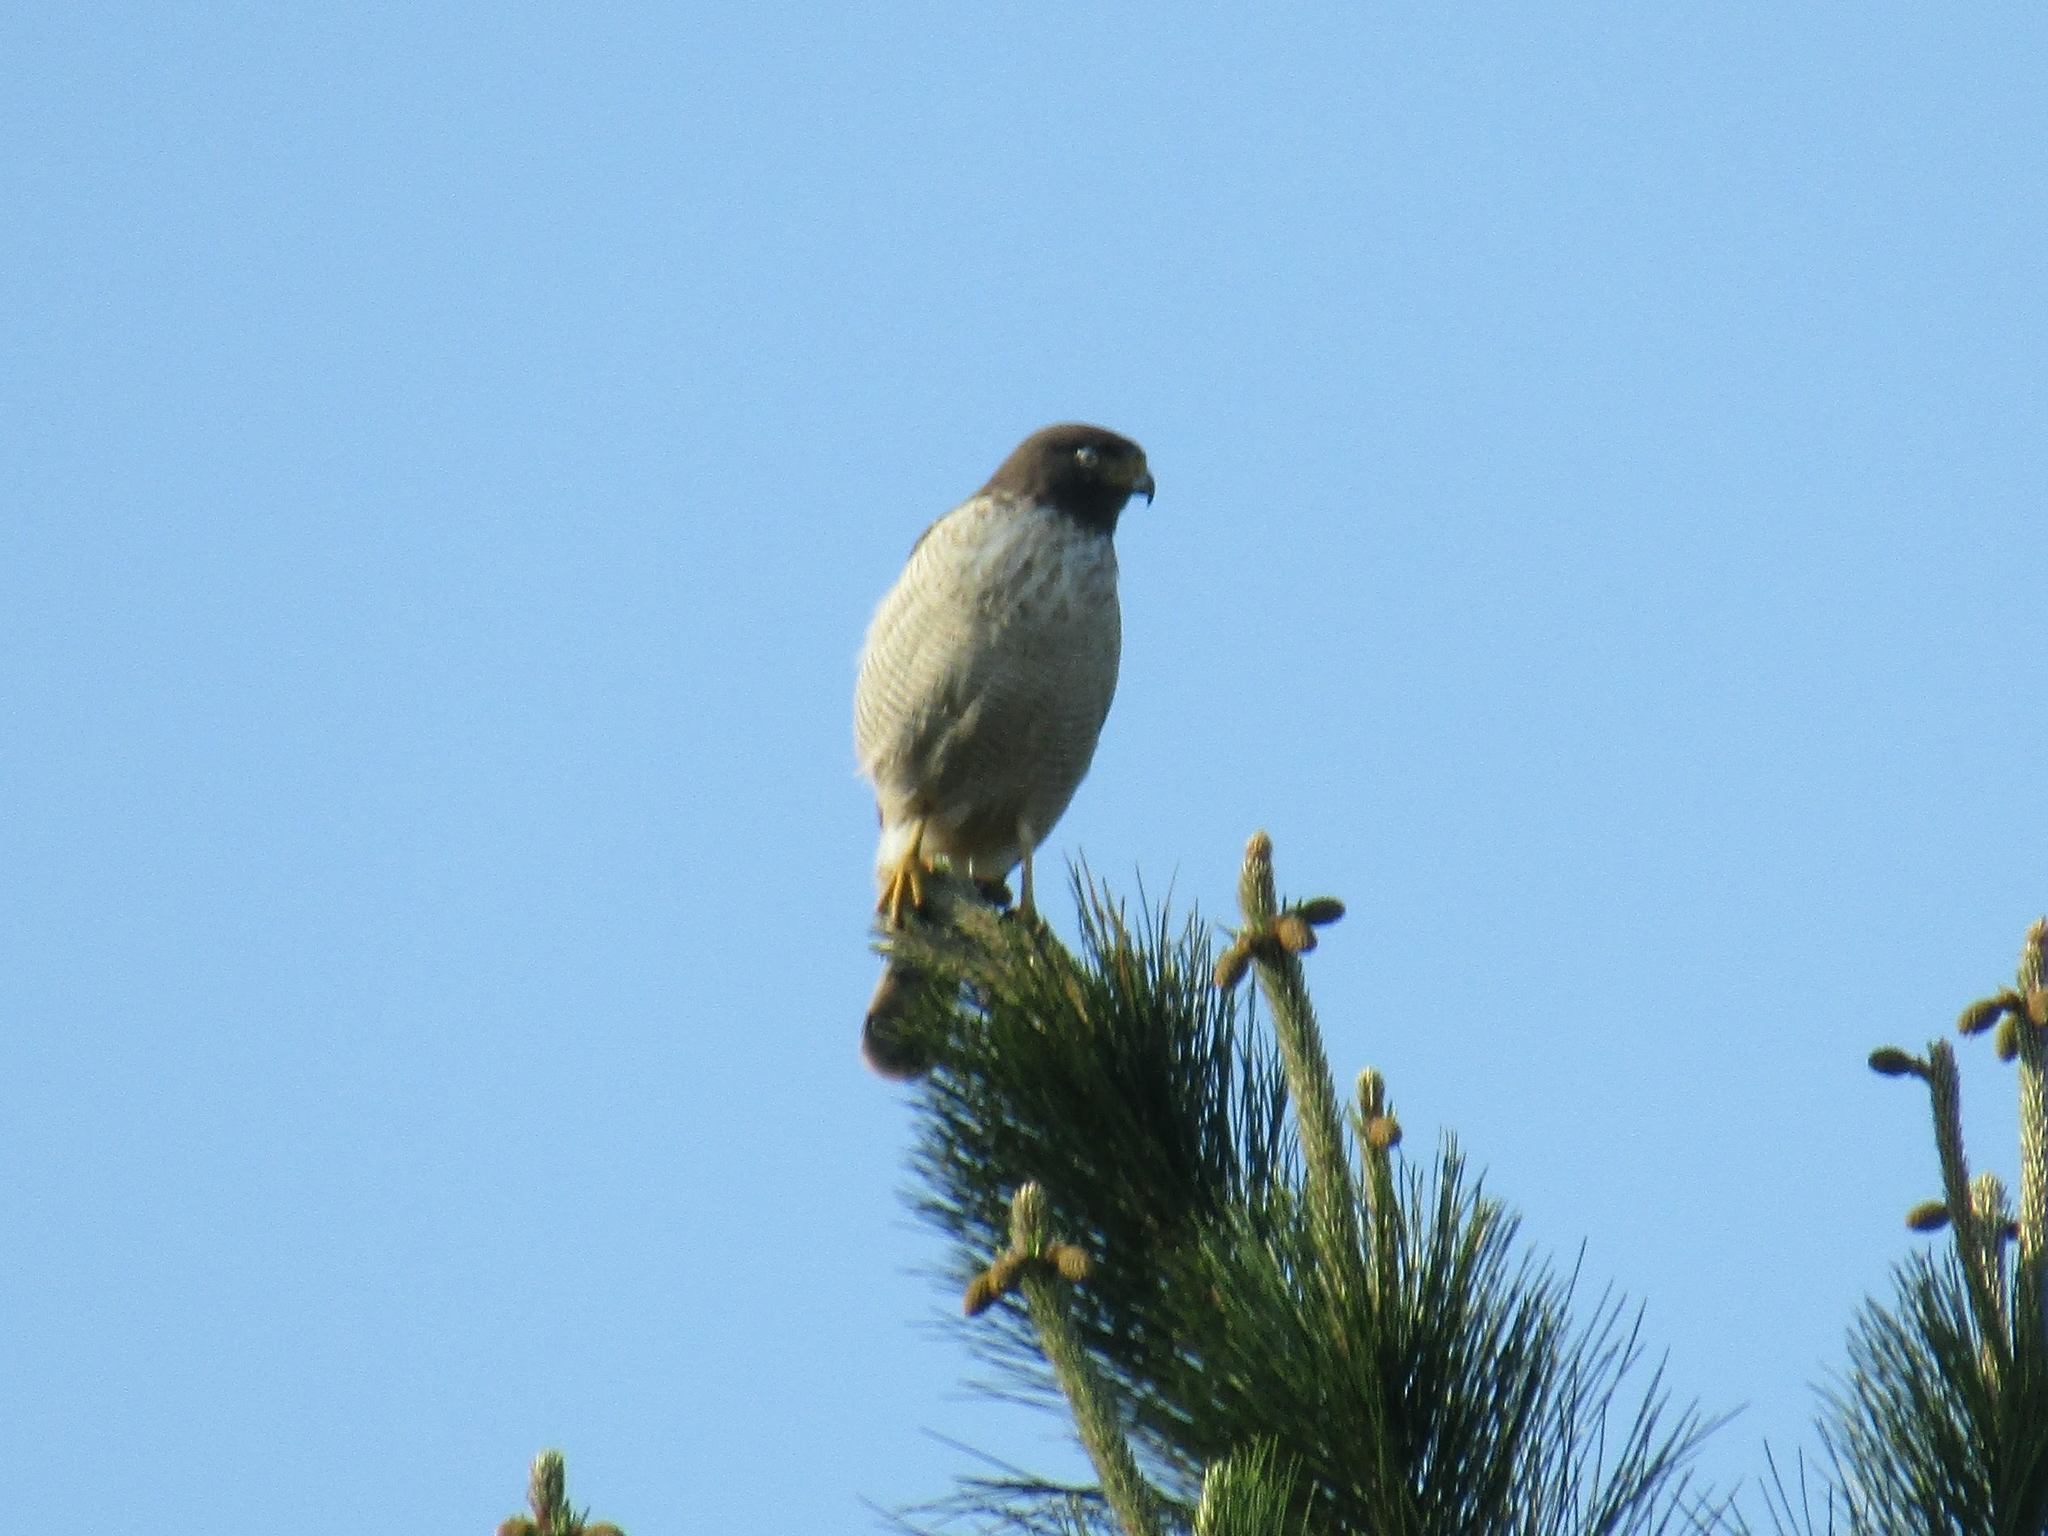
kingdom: Animalia
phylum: Chordata
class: Aves
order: Accipitriformes
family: Accipitridae
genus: Rupornis
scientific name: Rupornis magnirostris
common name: Roadside hawk
